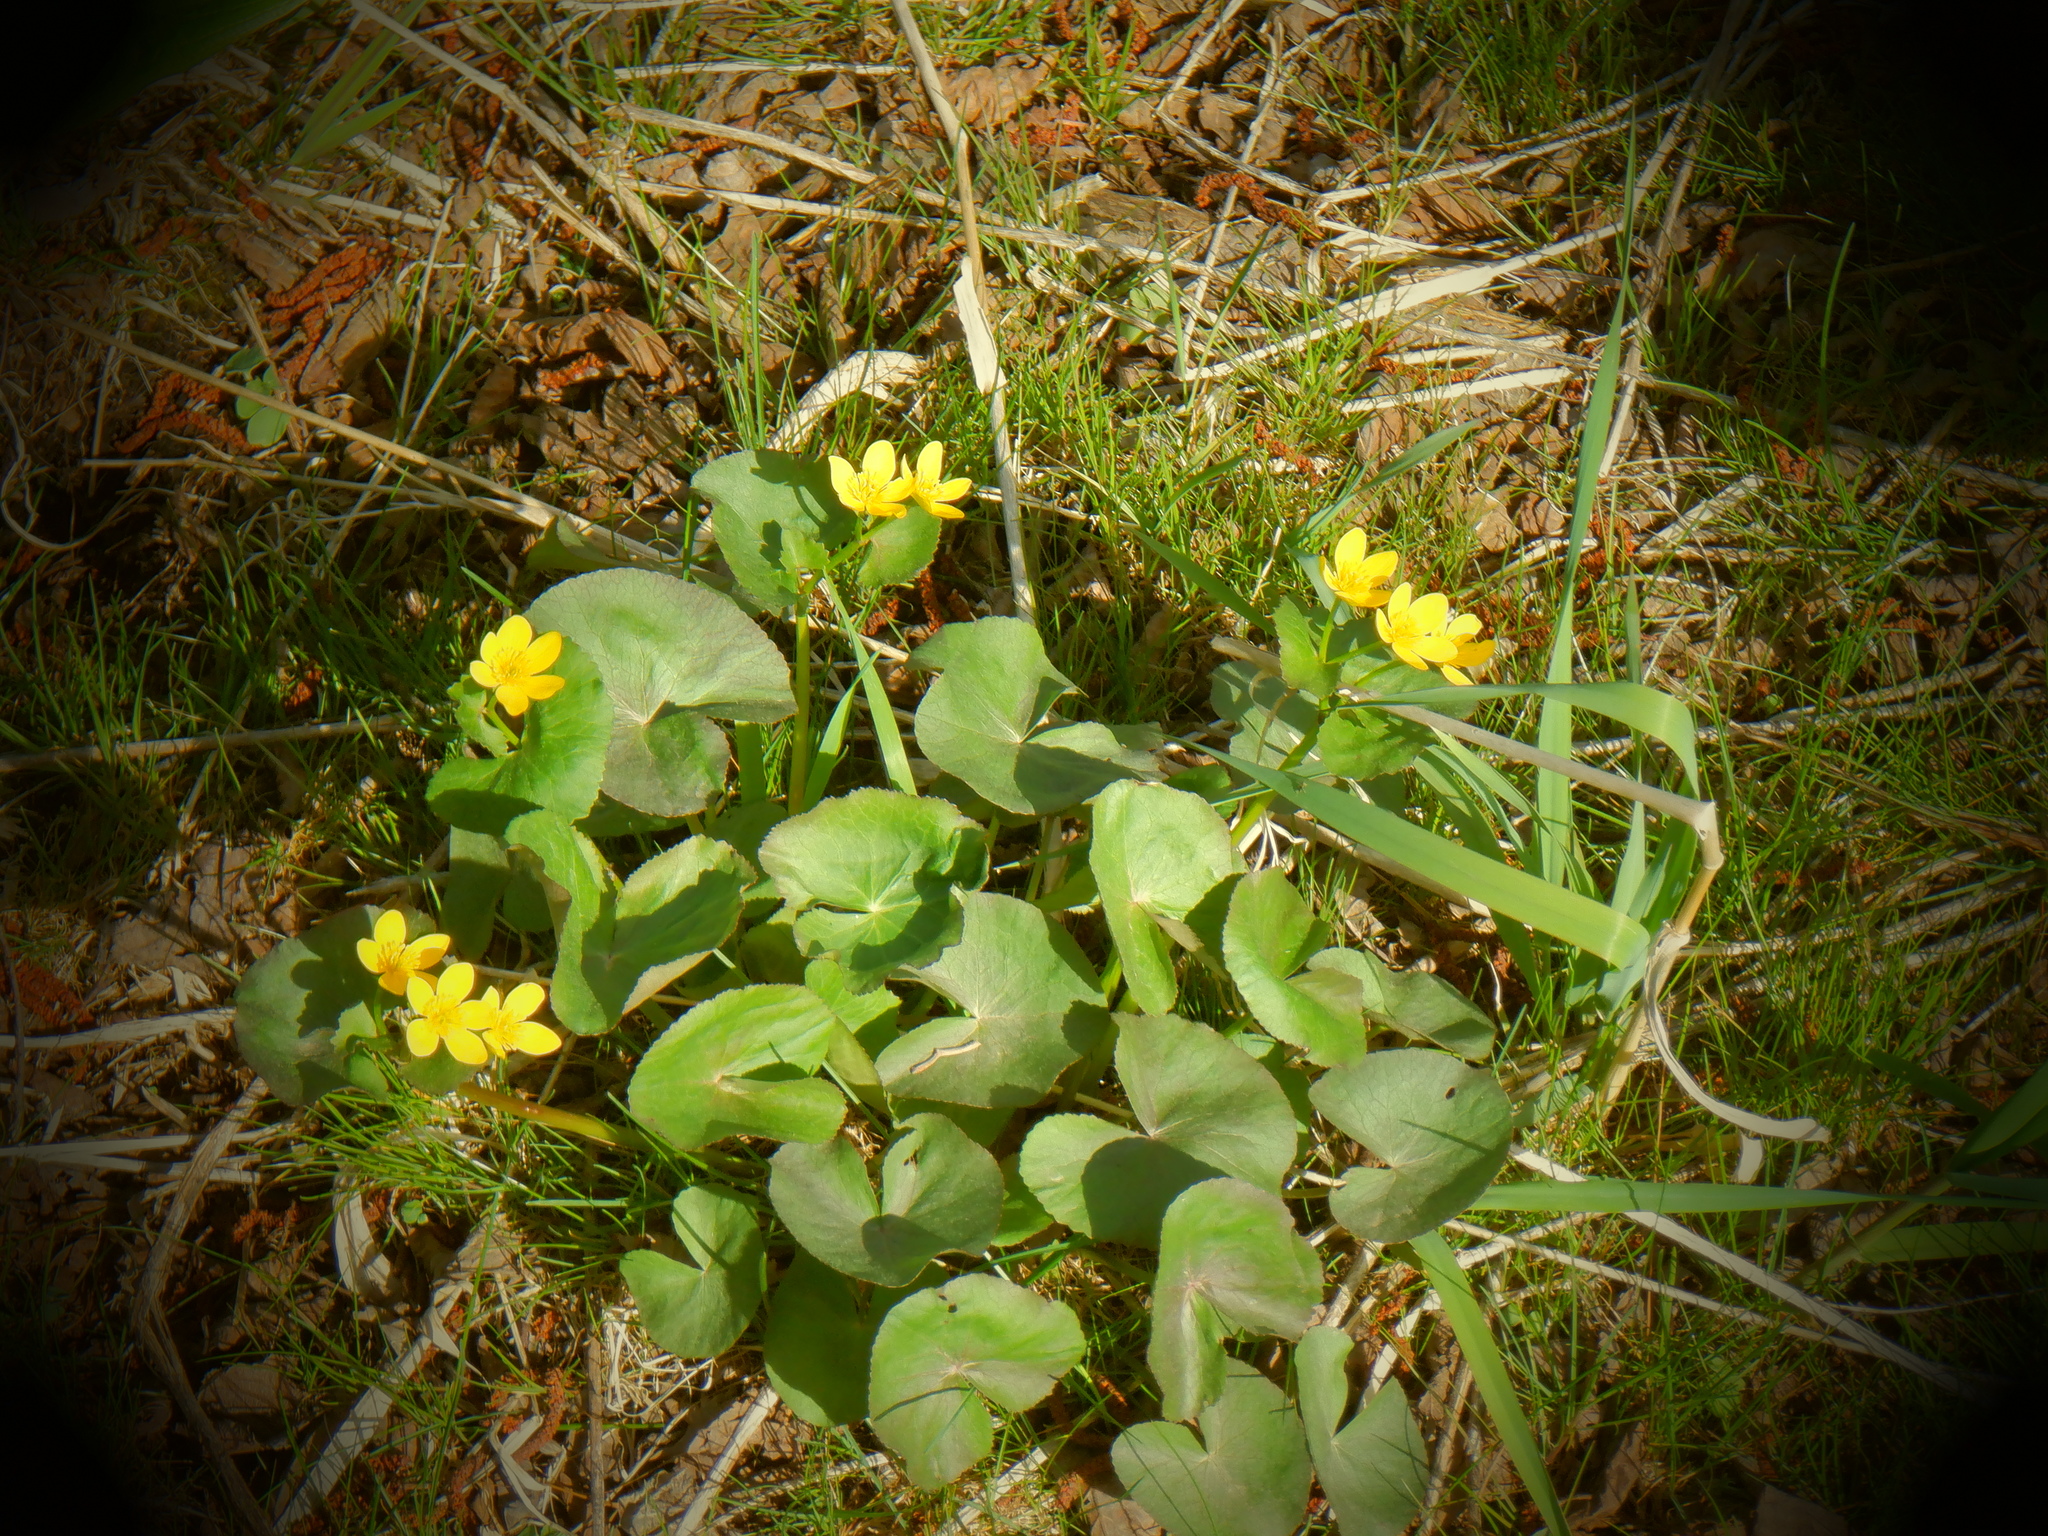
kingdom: Plantae
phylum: Tracheophyta
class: Magnoliopsida
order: Ranunculales
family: Ranunculaceae
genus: Caltha
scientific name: Caltha palustris
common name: Marsh marigold
